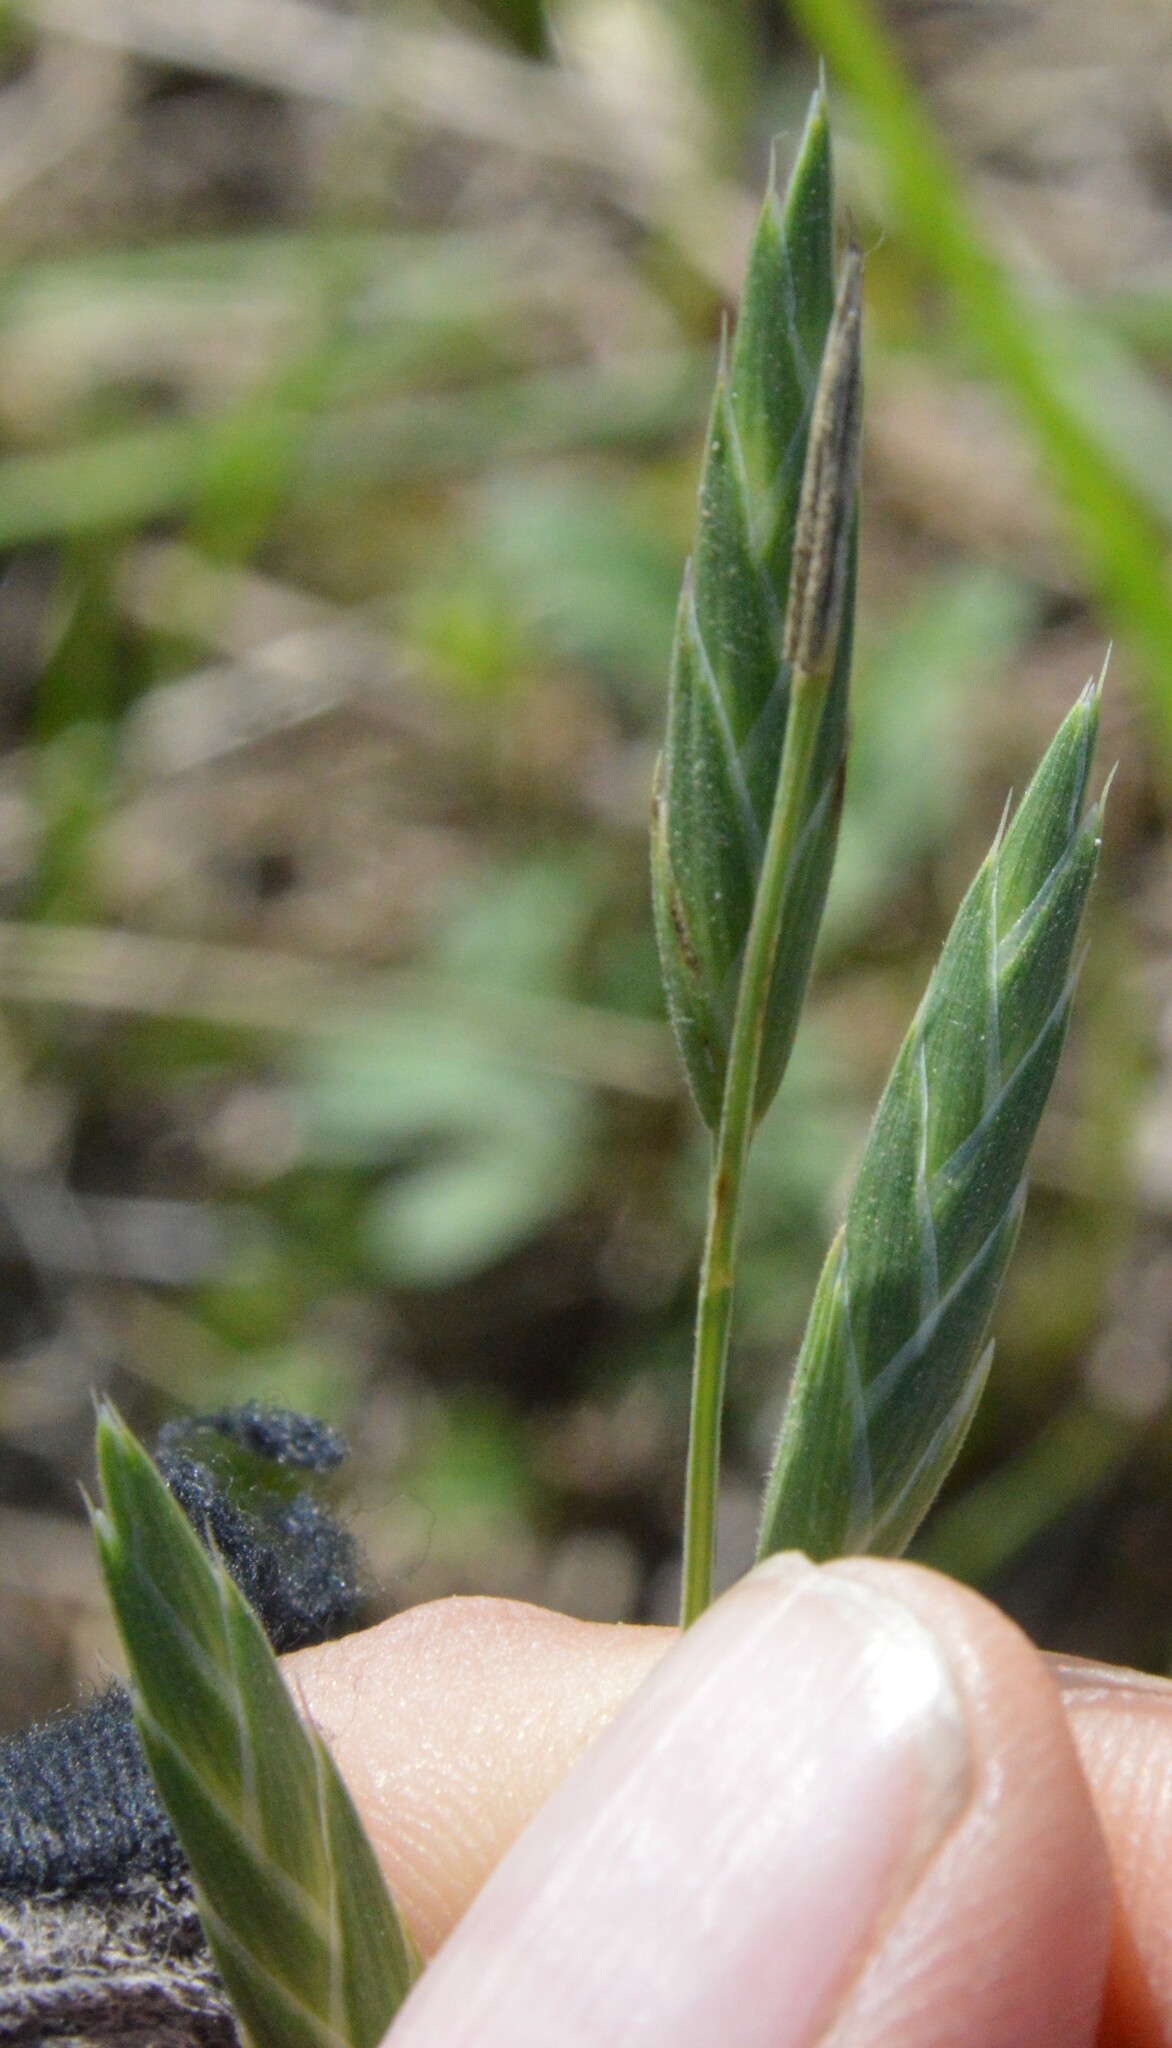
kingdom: Plantae
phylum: Tracheophyta
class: Liliopsida
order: Poales
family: Poaceae
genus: Bromus
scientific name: Bromus catharticus
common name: Rescuegrass
